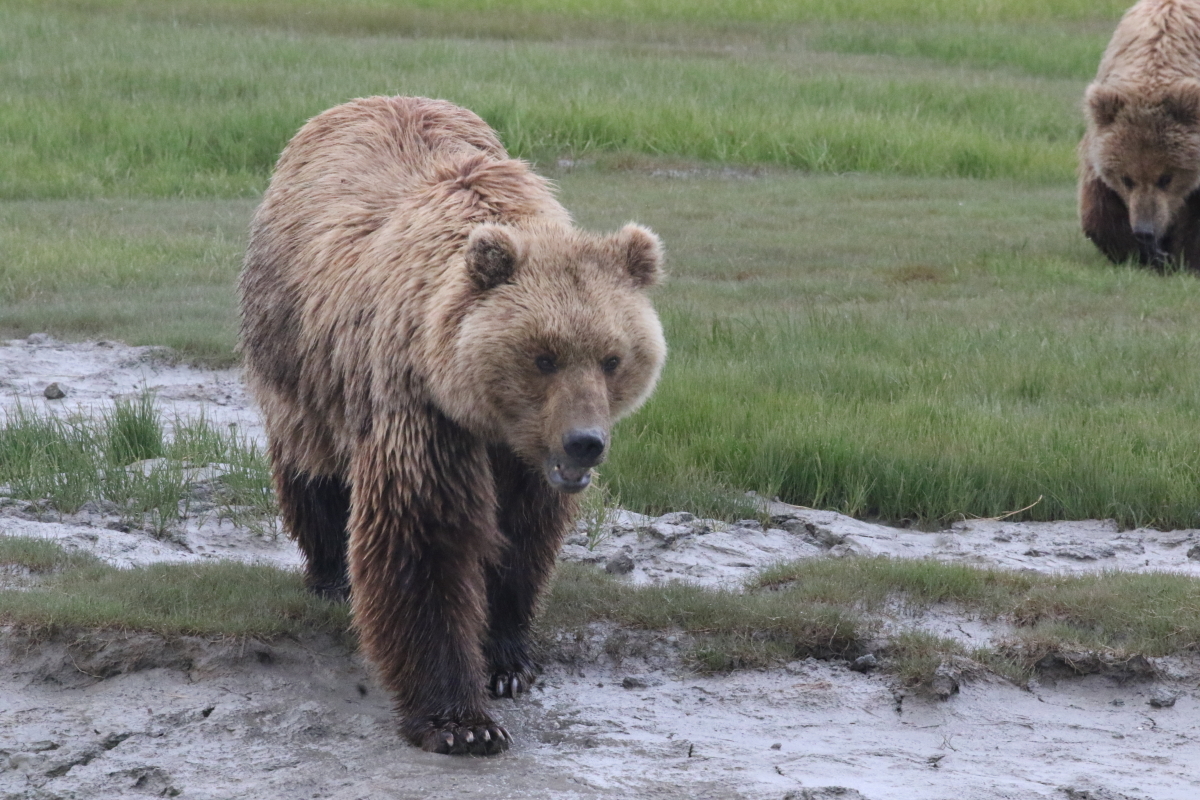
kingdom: Animalia
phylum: Chordata
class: Mammalia
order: Carnivora
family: Ursidae
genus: Ursus
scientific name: Ursus arctos
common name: Brown bear
